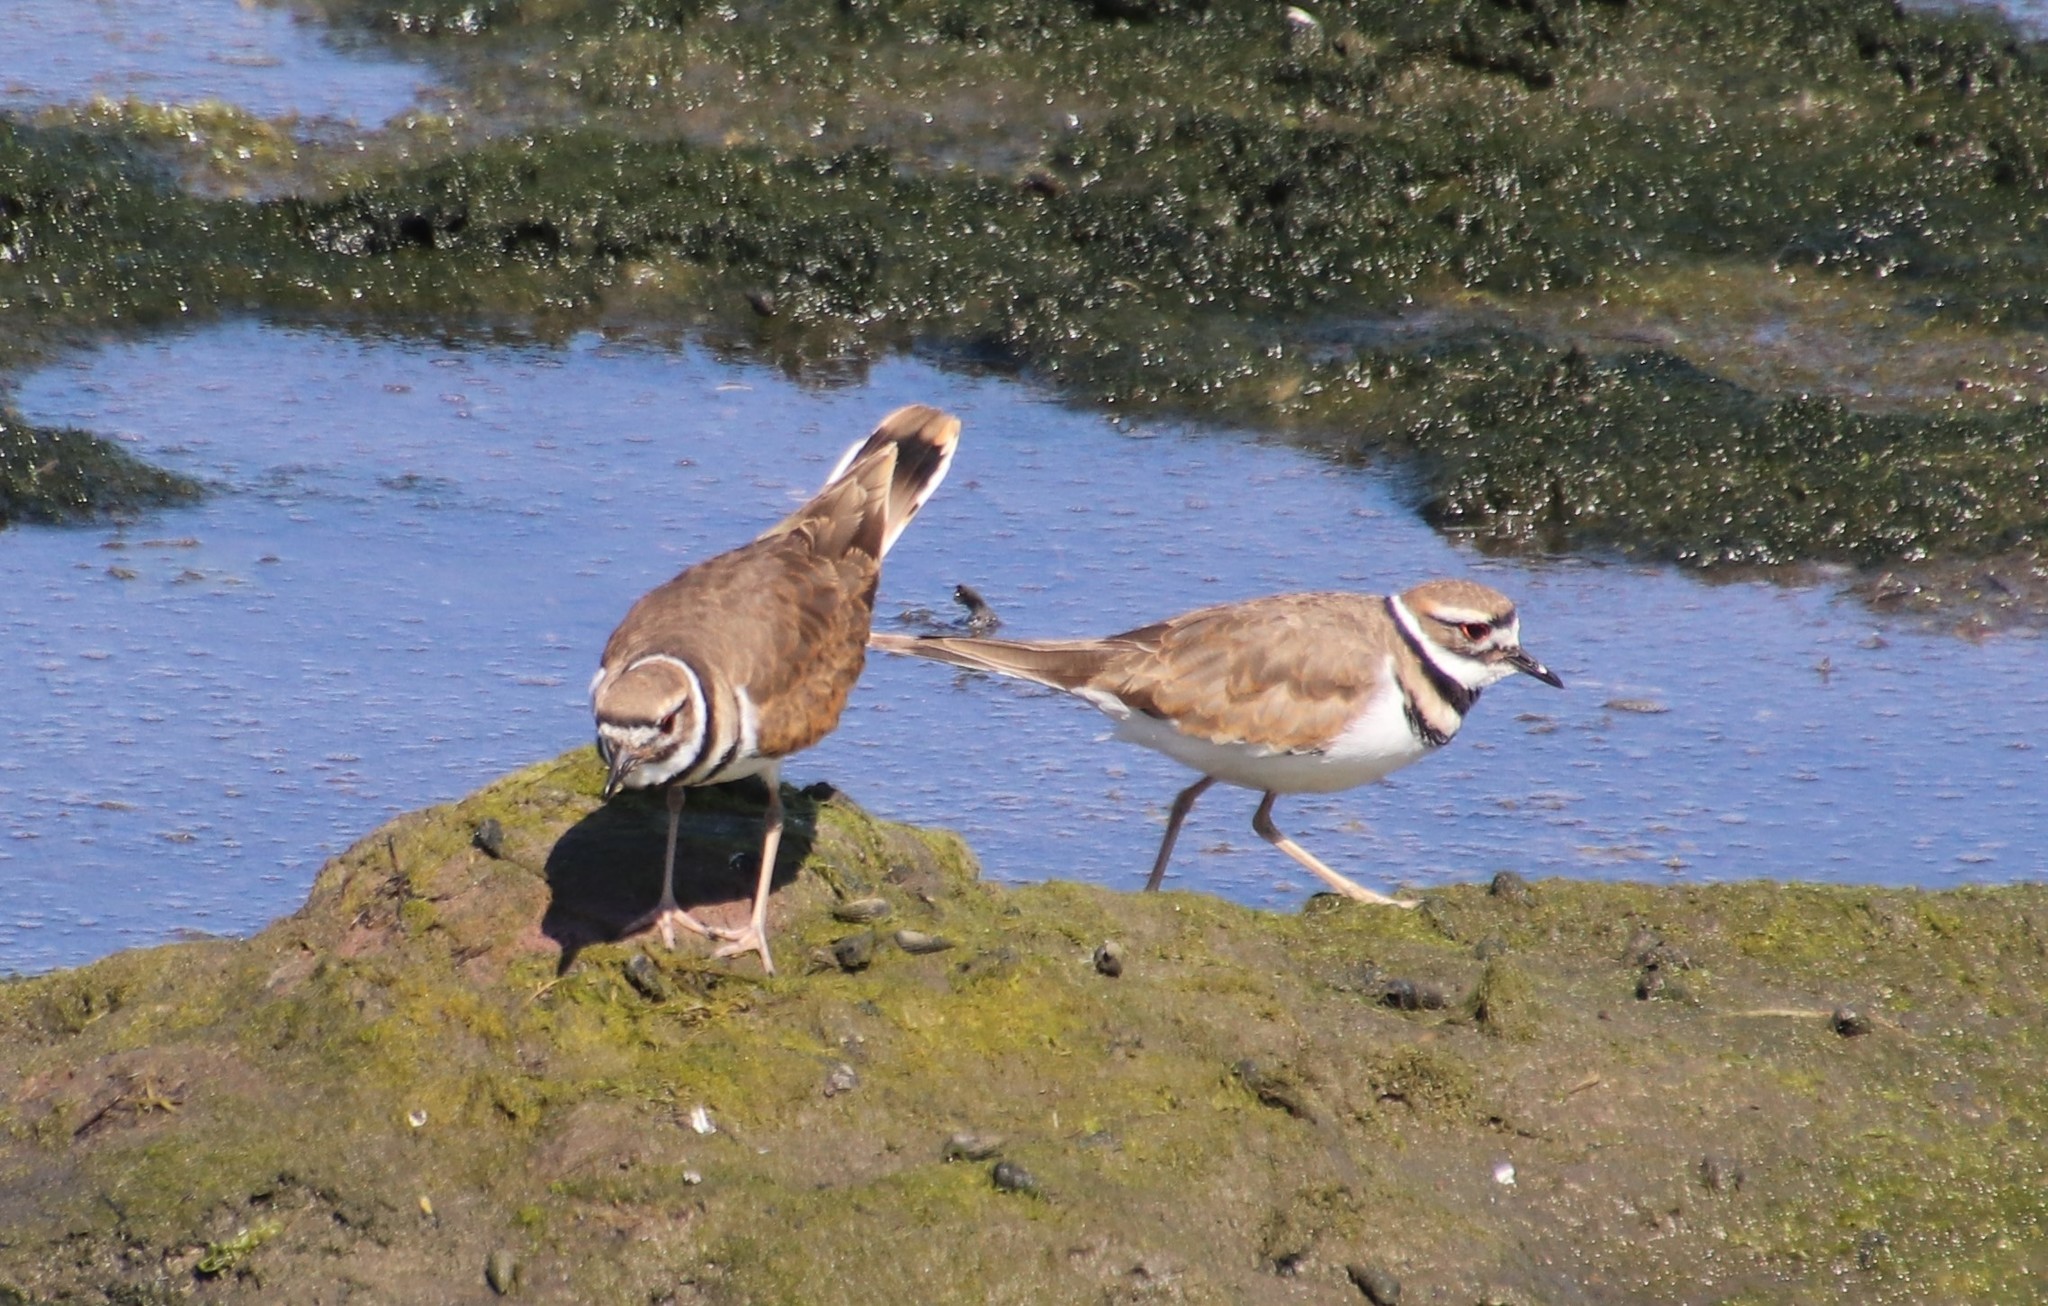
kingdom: Animalia
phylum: Chordata
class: Aves
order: Charadriiformes
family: Charadriidae
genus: Charadrius
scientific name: Charadrius vociferus
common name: Killdeer
